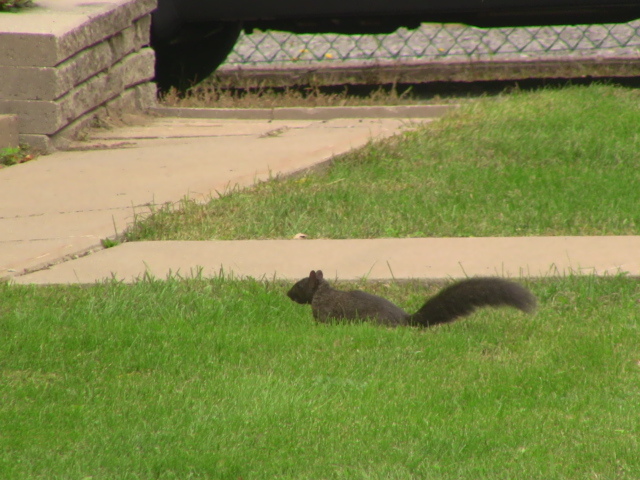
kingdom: Animalia
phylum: Chordata
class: Mammalia
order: Rodentia
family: Sciuridae
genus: Sciurus
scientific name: Sciurus carolinensis
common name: Eastern gray squirrel
